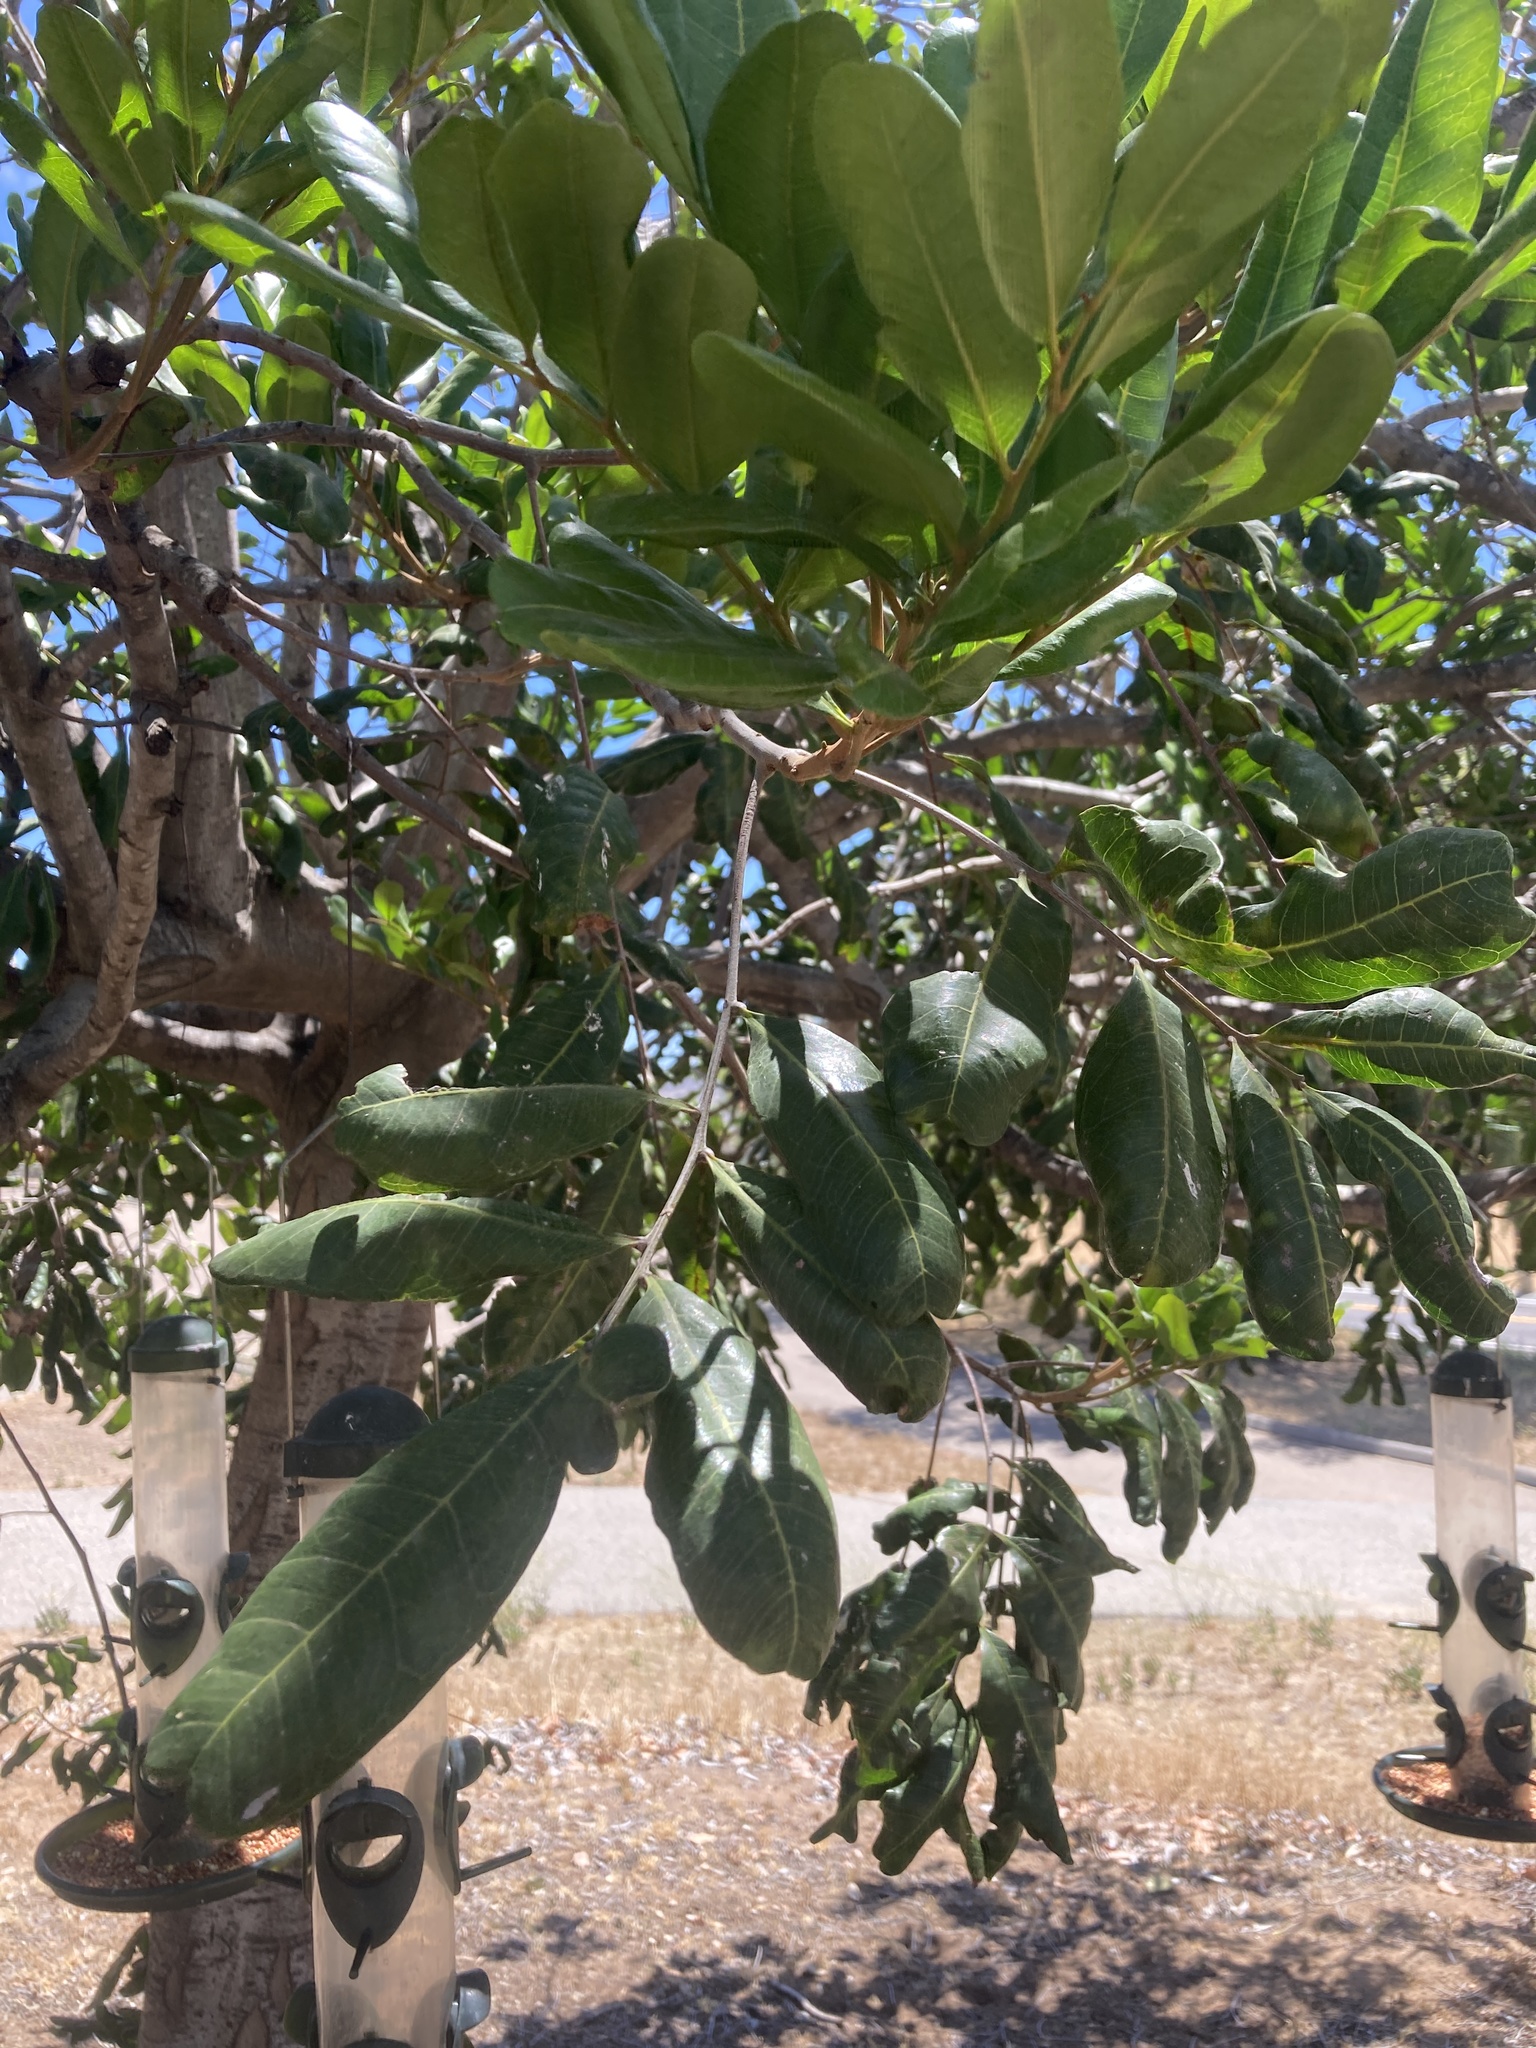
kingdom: Plantae
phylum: Tracheophyta
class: Magnoliopsida
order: Sapindales
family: Sapindaceae
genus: Cupaniopsis
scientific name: Cupaniopsis anacardioides
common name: Carrotwood
